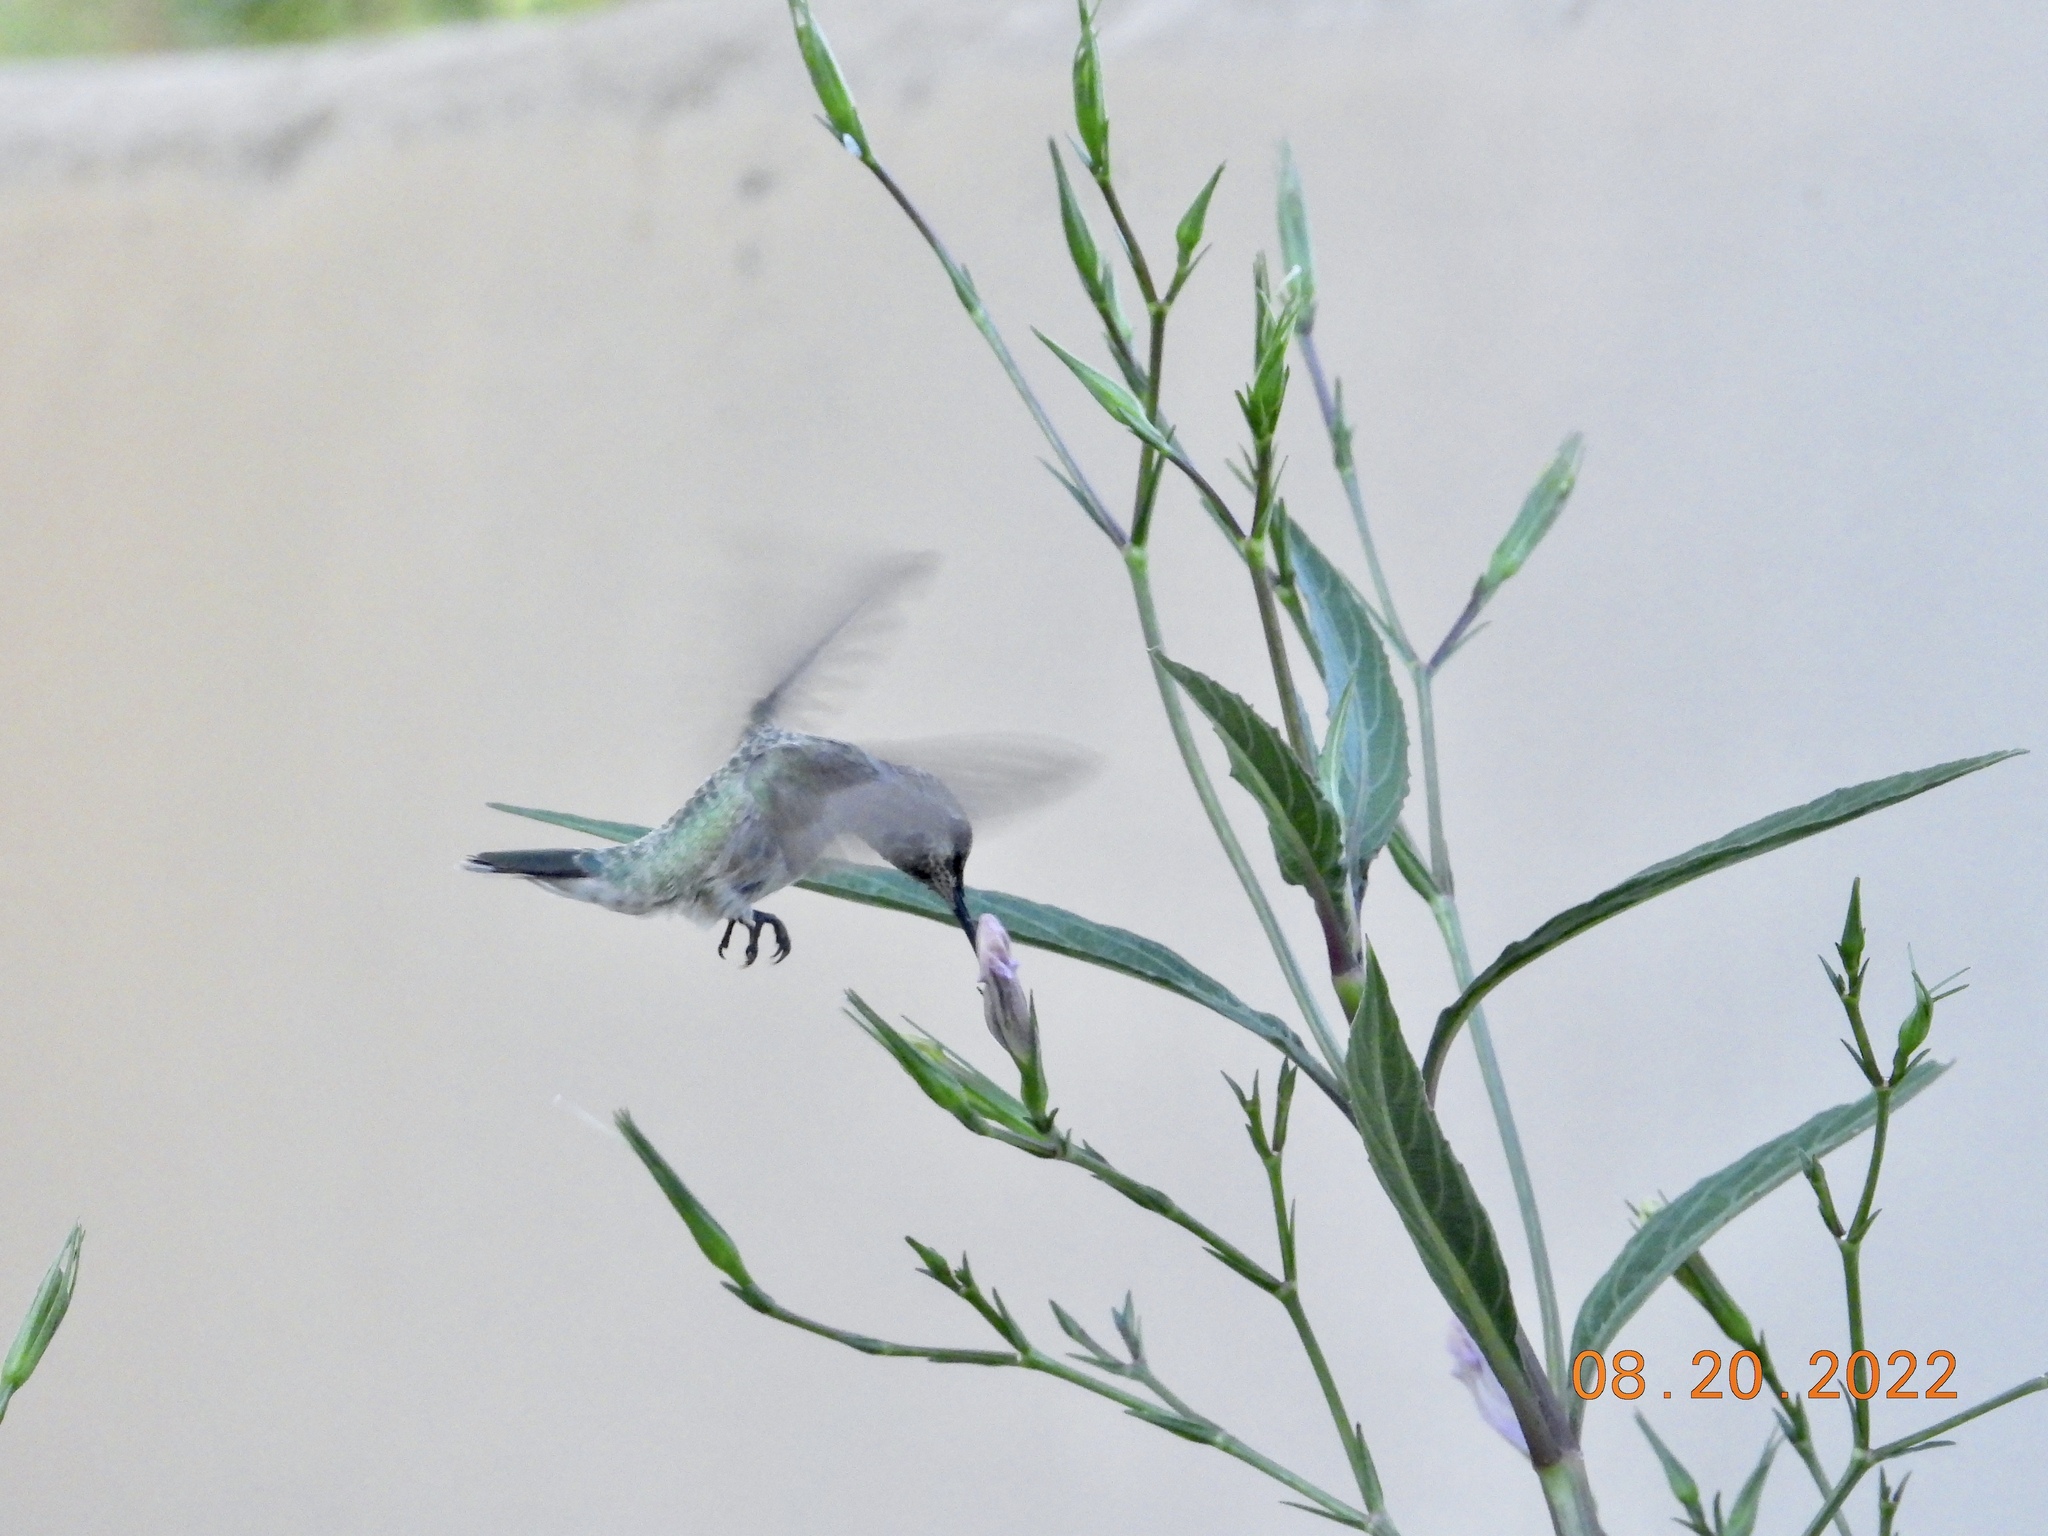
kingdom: Animalia
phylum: Chordata
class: Aves
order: Apodiformes
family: Trochilidae
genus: Calypte
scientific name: Calypte anna
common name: Anna's hummingbird
